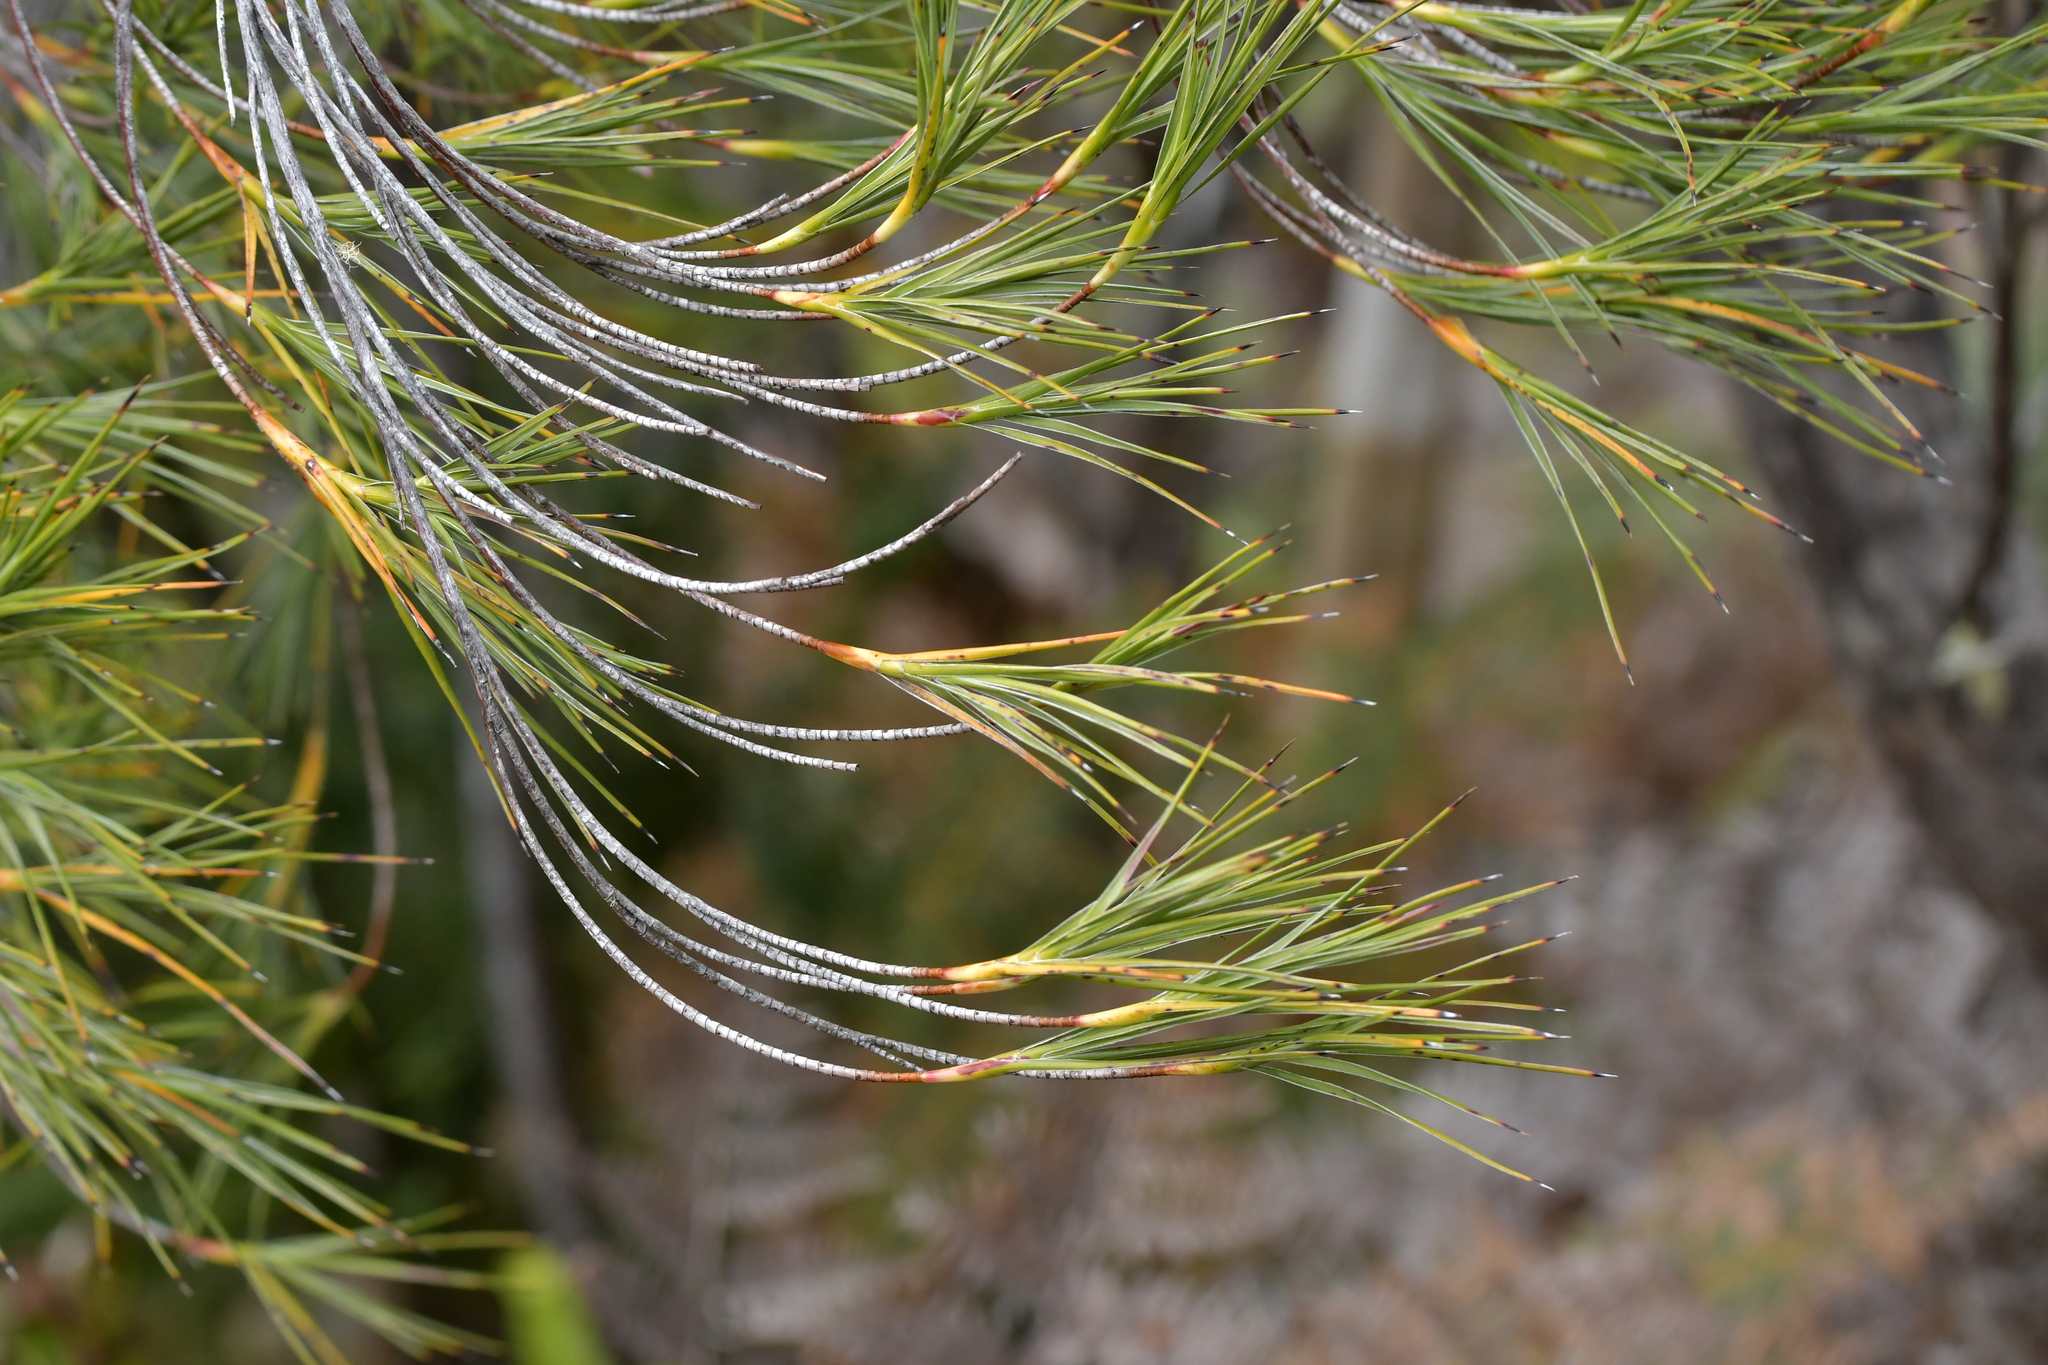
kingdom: Plantae
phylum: Tracheophyta
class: Magnoliopsida
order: Ericales
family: Ericaceae
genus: Dracophyllum
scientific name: Dracophyllum arboreum
